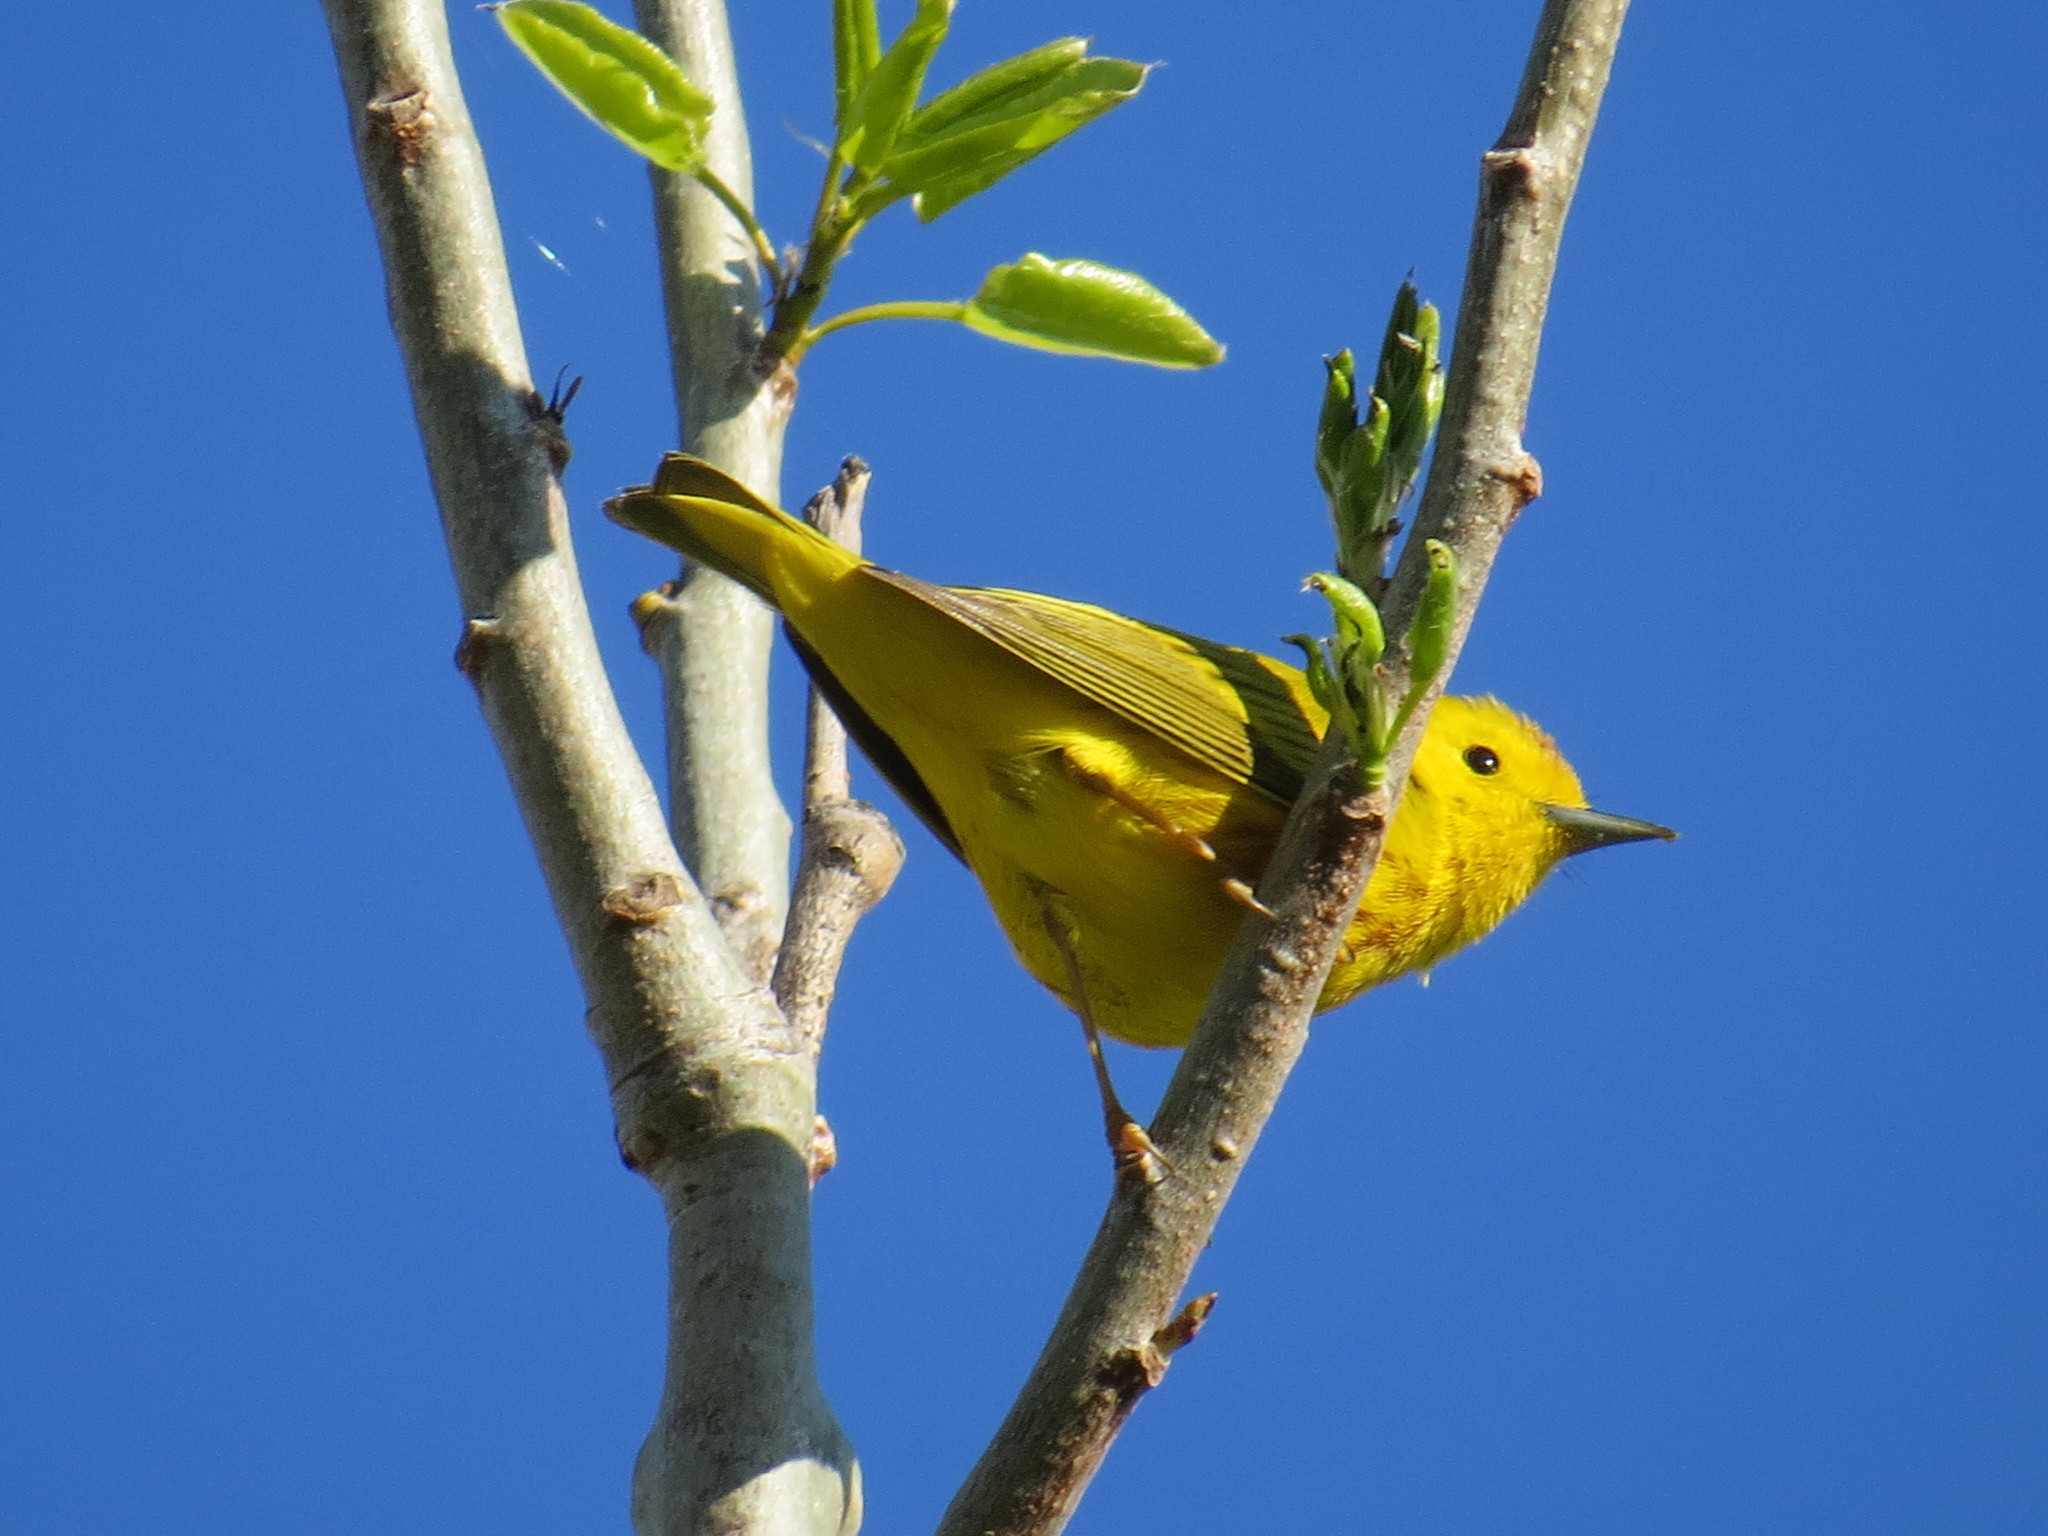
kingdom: Animalia
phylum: Chordata
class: Aves
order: Passeriformes
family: Parulidae
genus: Setophaga
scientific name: Setophaga petechia
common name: Yellow warbler
